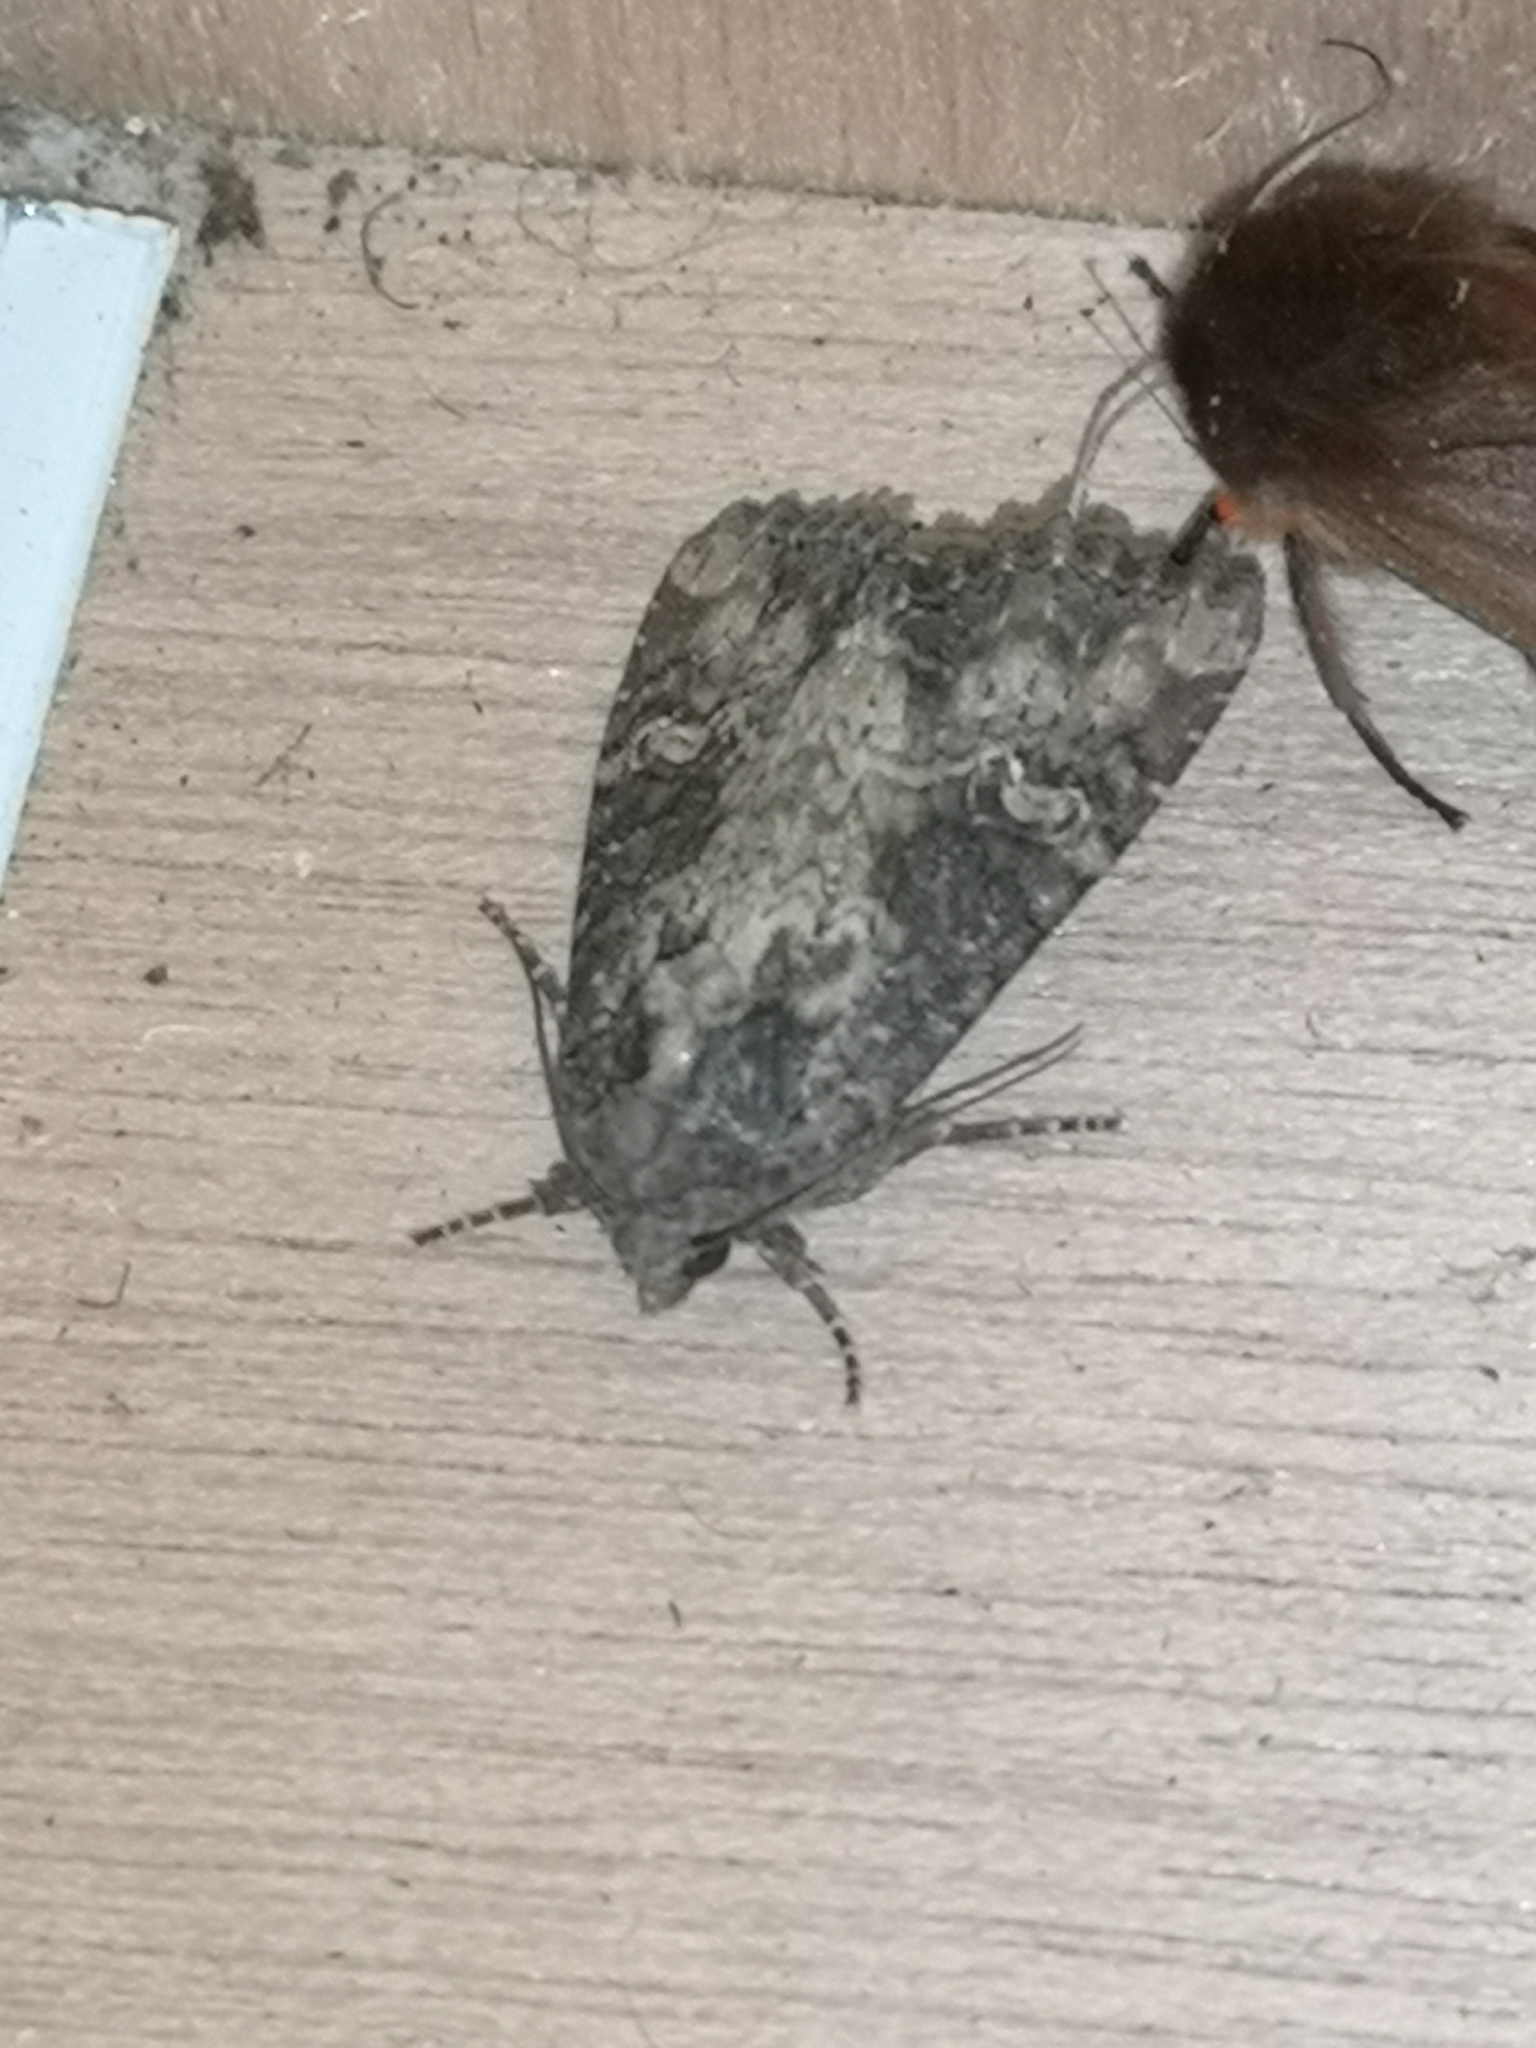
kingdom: Animalia
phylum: Arthropoda
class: Insecta
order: Lepidoptera
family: Noctuidae
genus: Mesapamea
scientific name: Mesapamea
